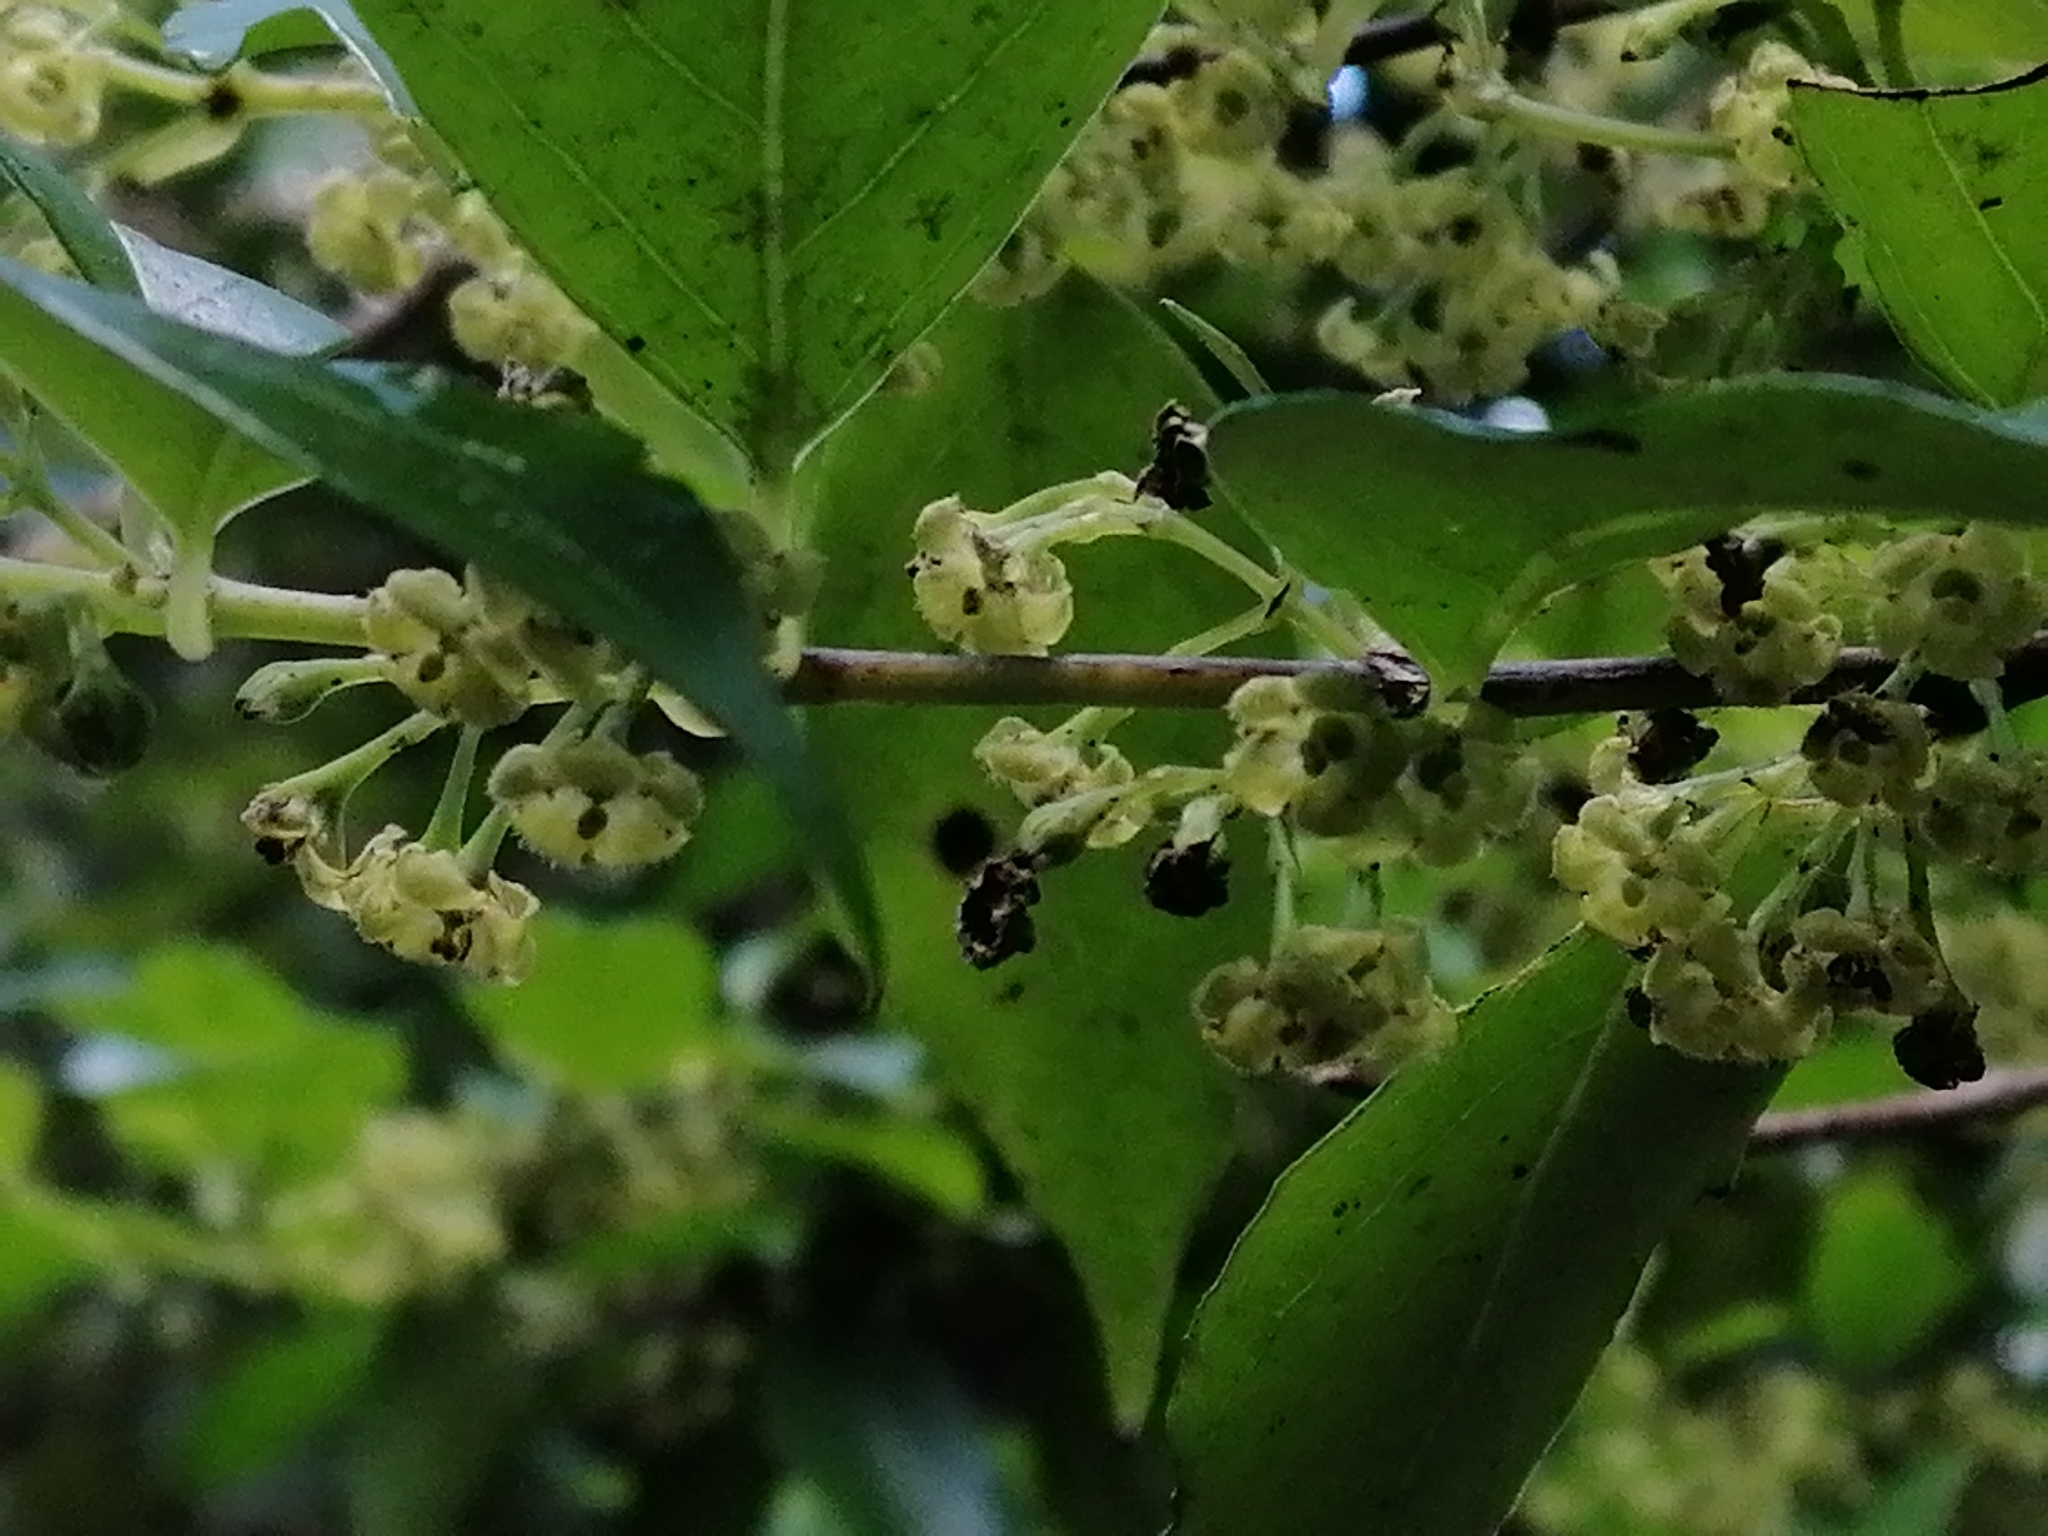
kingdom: Plantae
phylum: Tracheophyta
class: Magnoliopsida
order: Gentianales
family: Loganiaceae
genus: Geniostoma
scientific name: Geniostoma ligustrifolium
